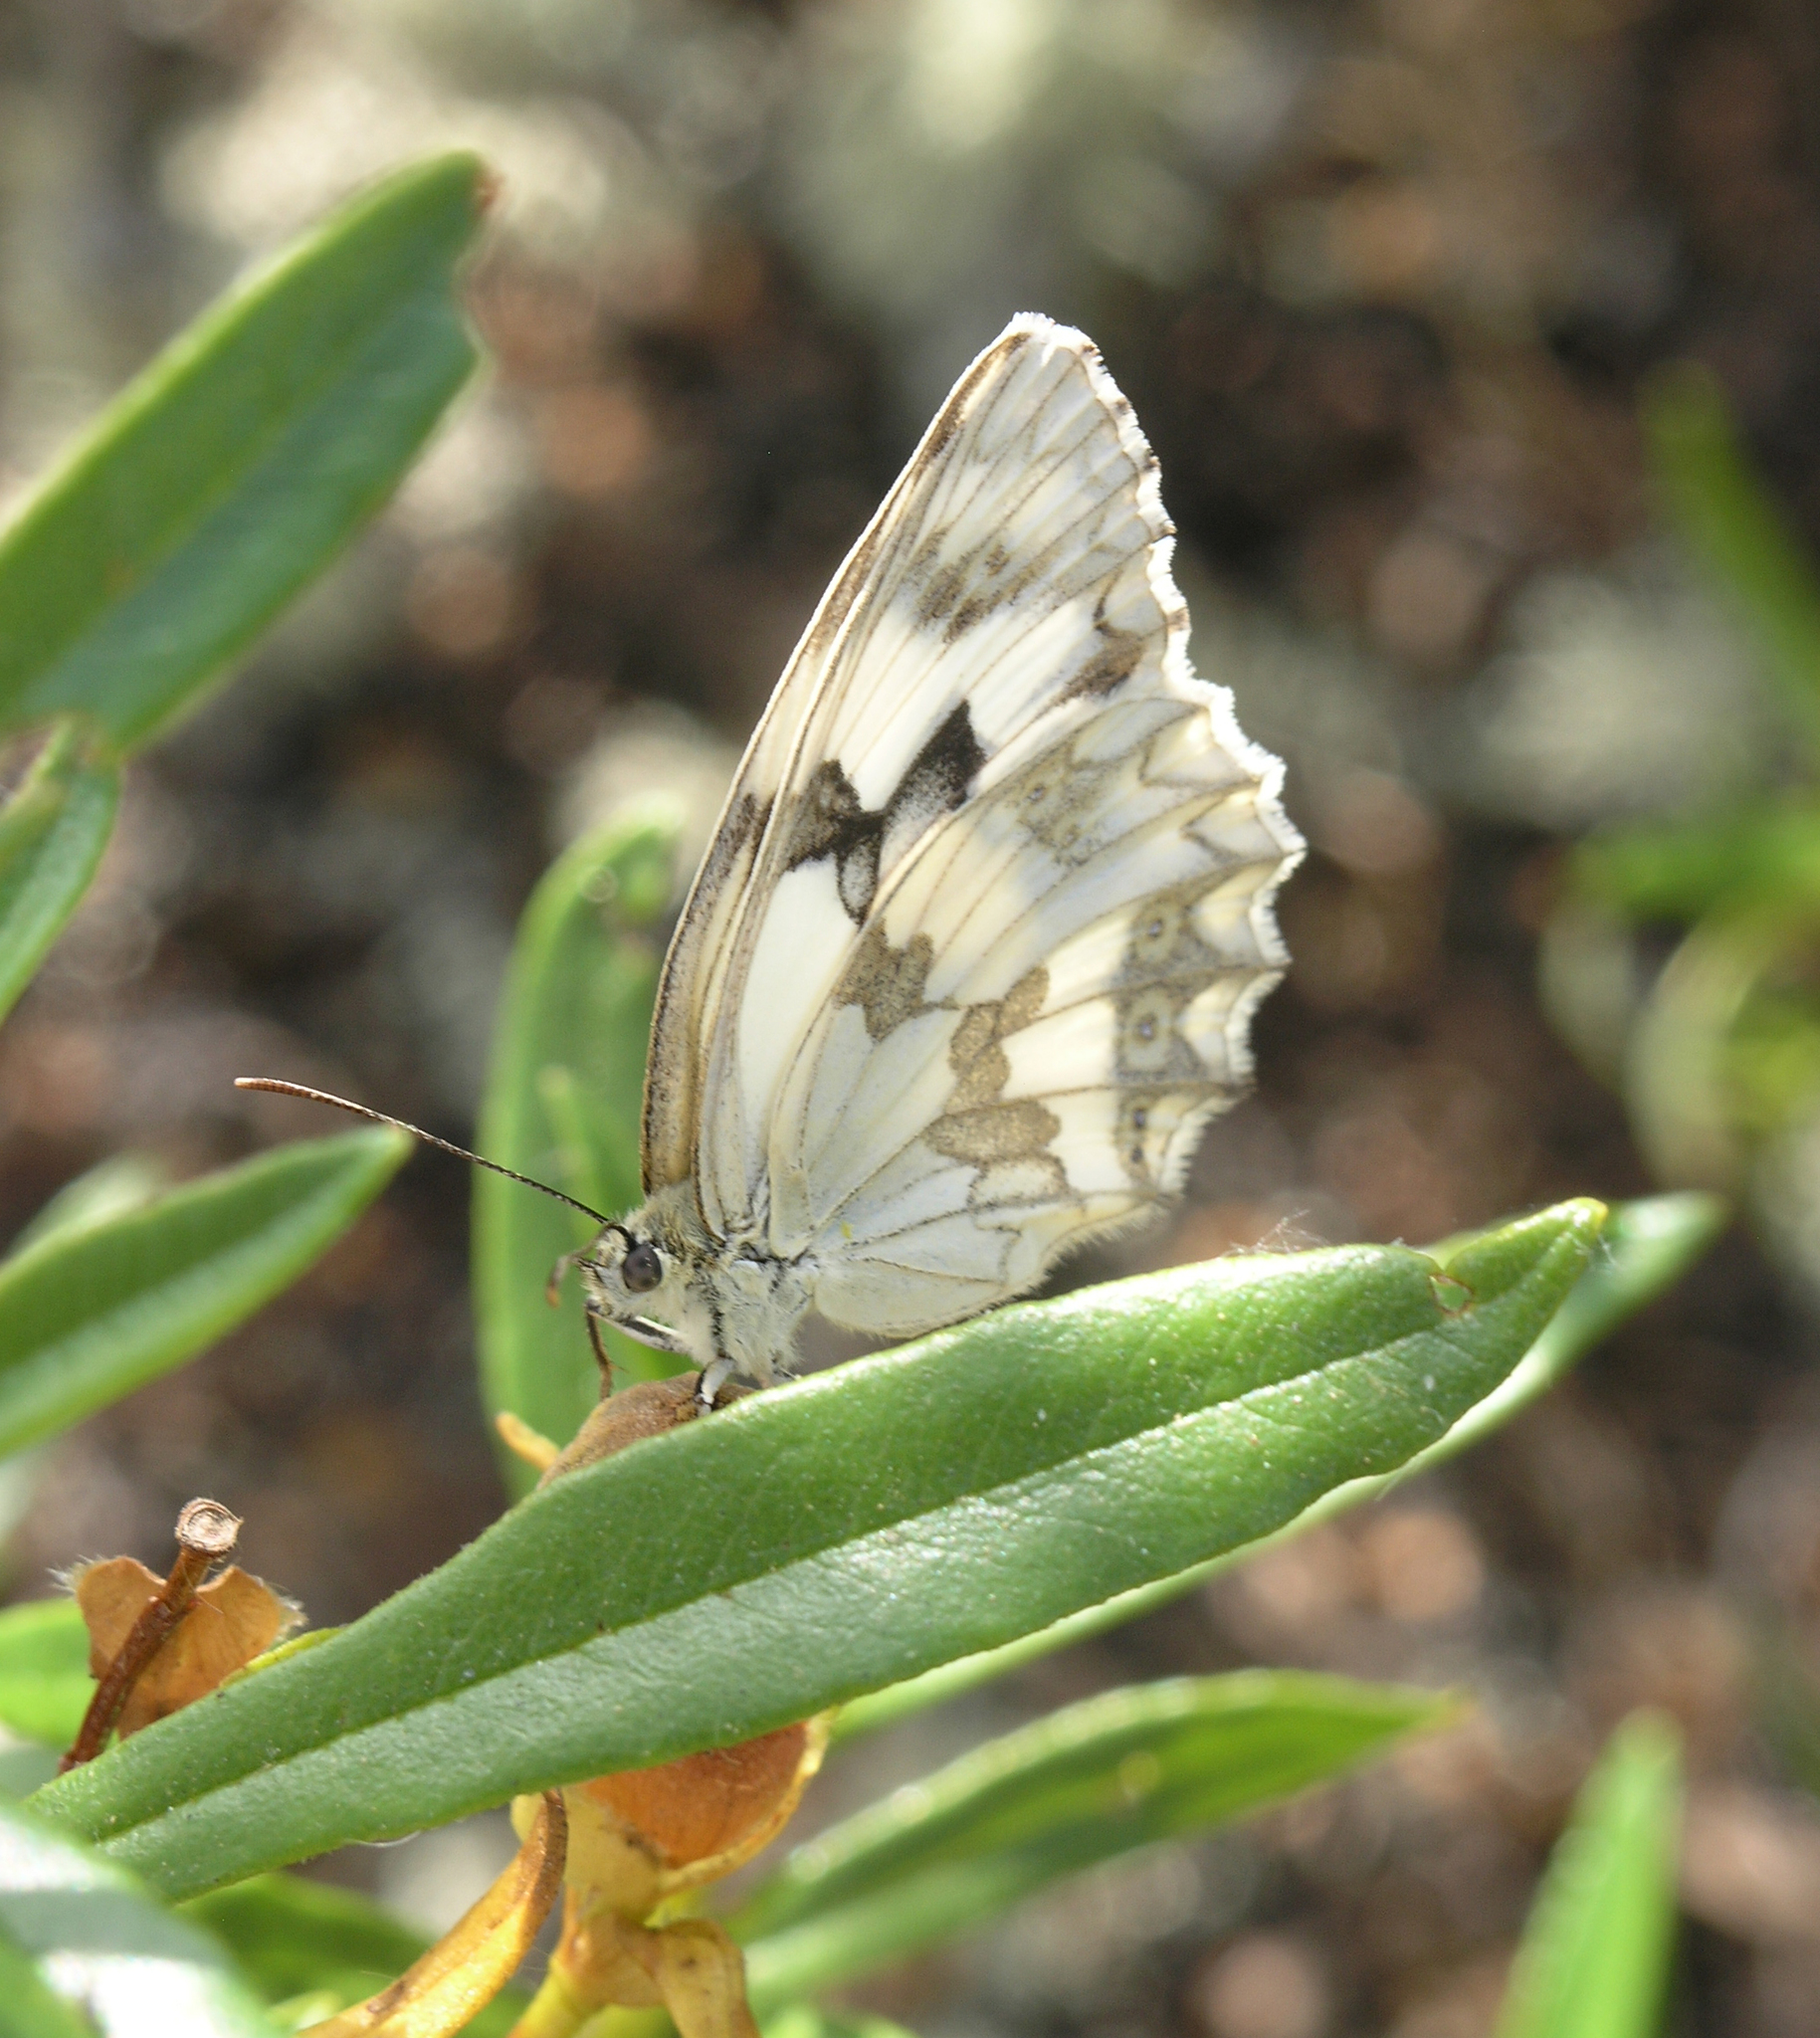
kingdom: Animalia
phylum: Arthropoda
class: Insecta
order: Lepidoptera
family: Nymphalidae
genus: Melanargia
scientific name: Melanargia lachesis
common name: Iberian marbled white
